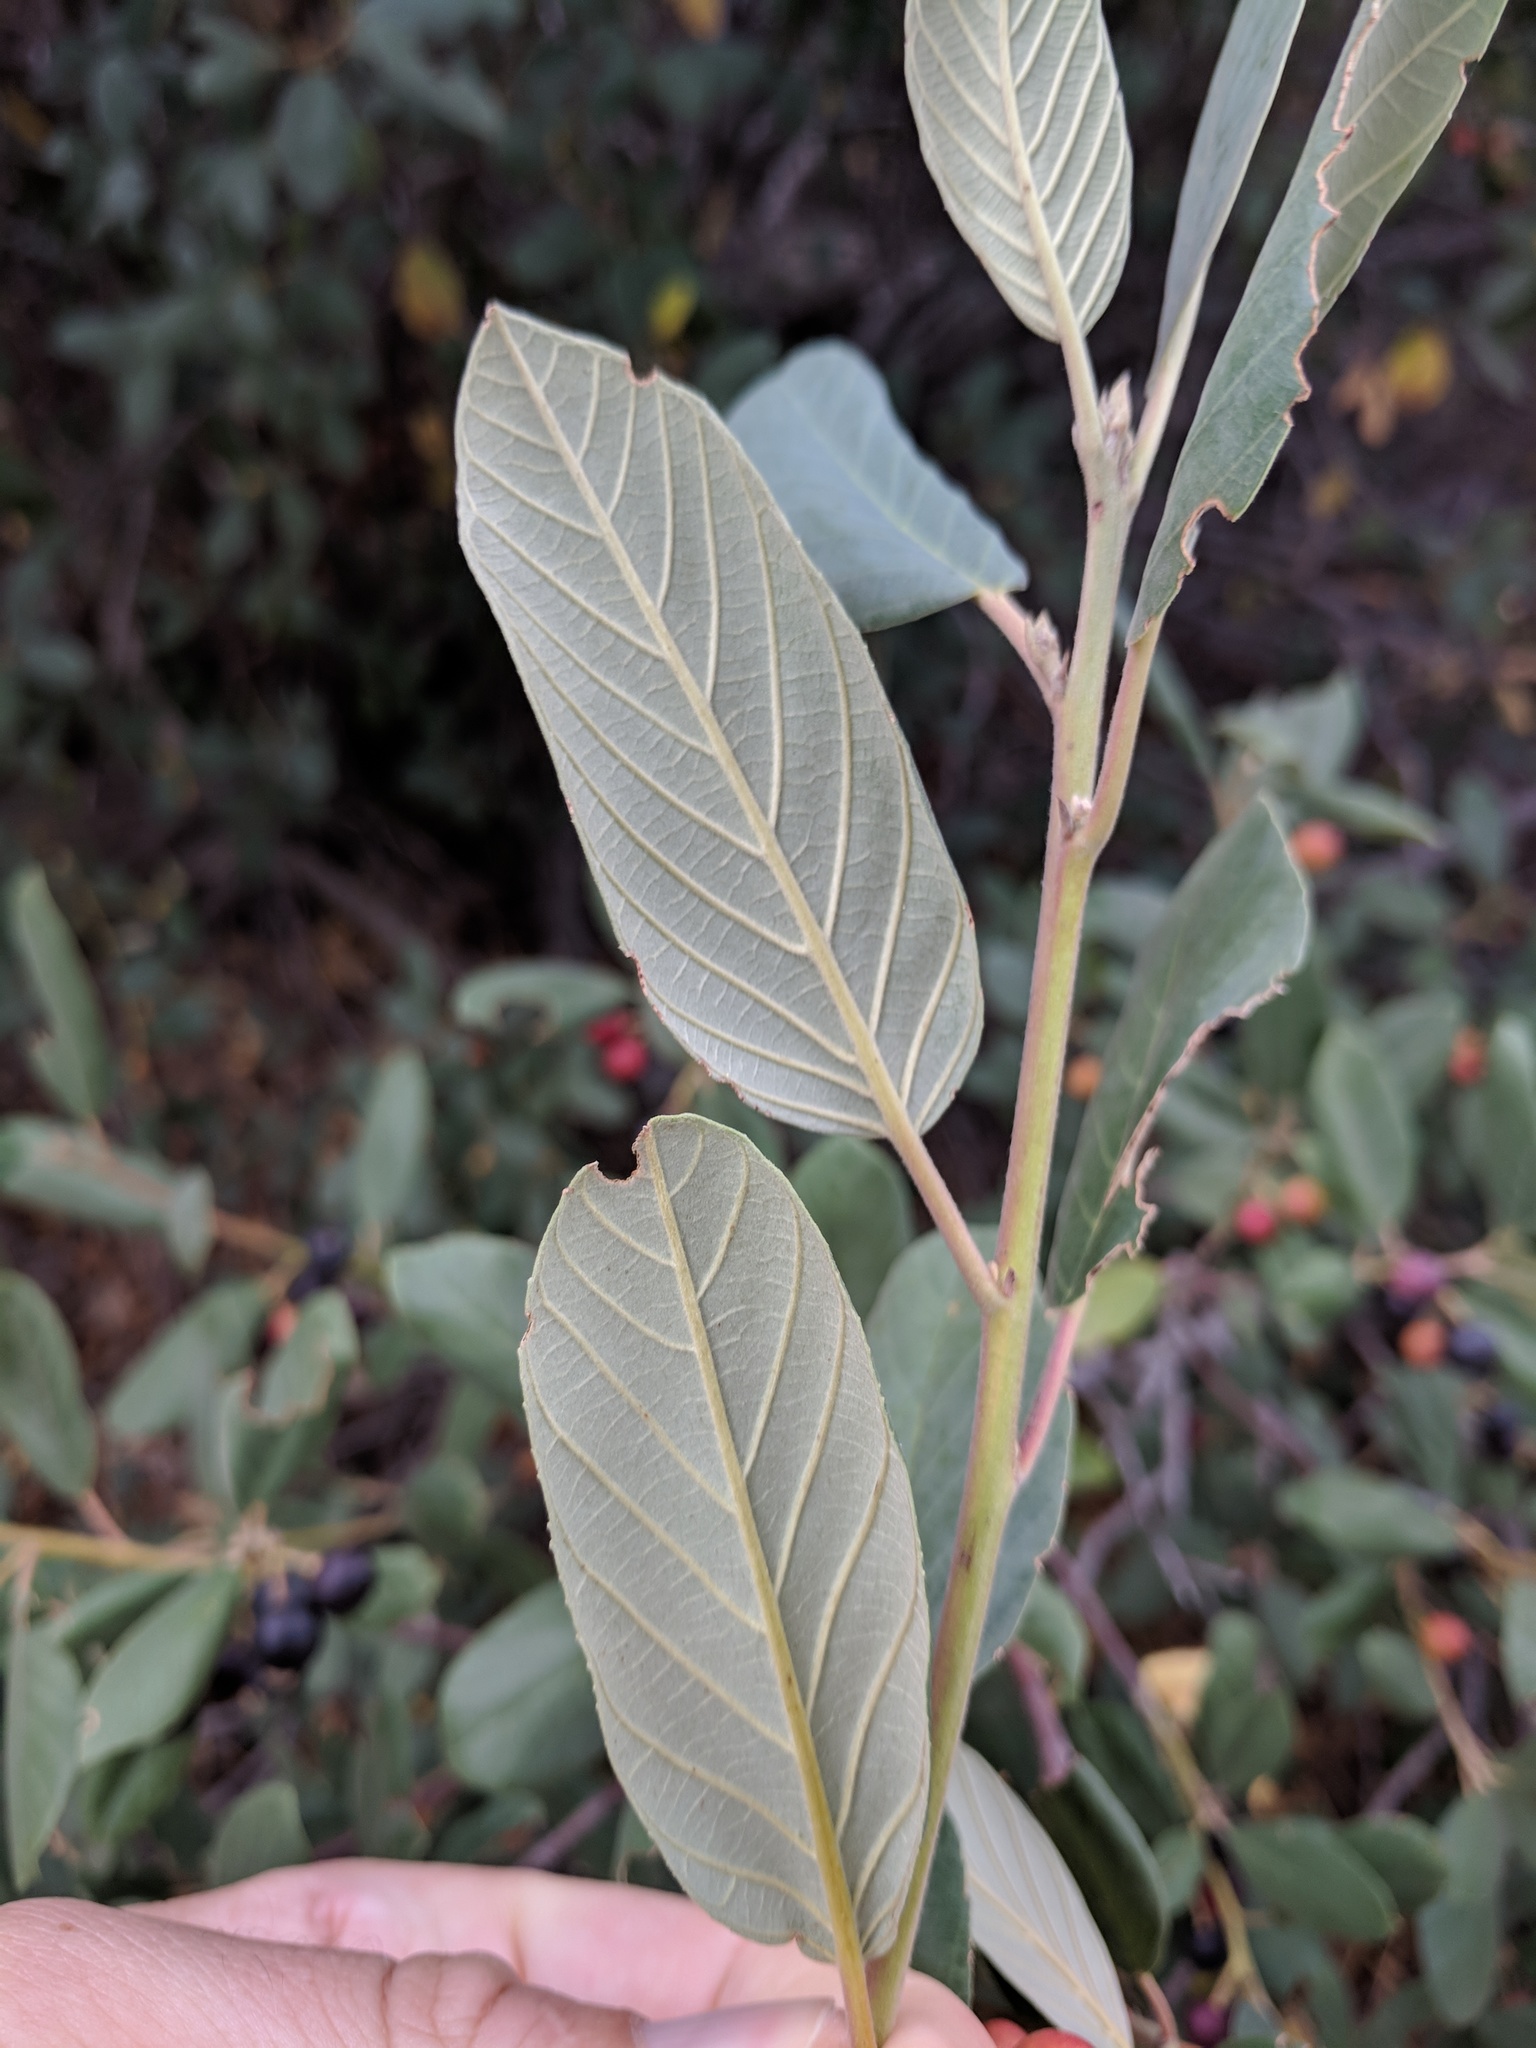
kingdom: Plantae
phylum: Tracheophyta
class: Magnoliopsida
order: Rosales
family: Rhamnaceae
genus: Frangula
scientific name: Frangula californica
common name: California buckthorn
